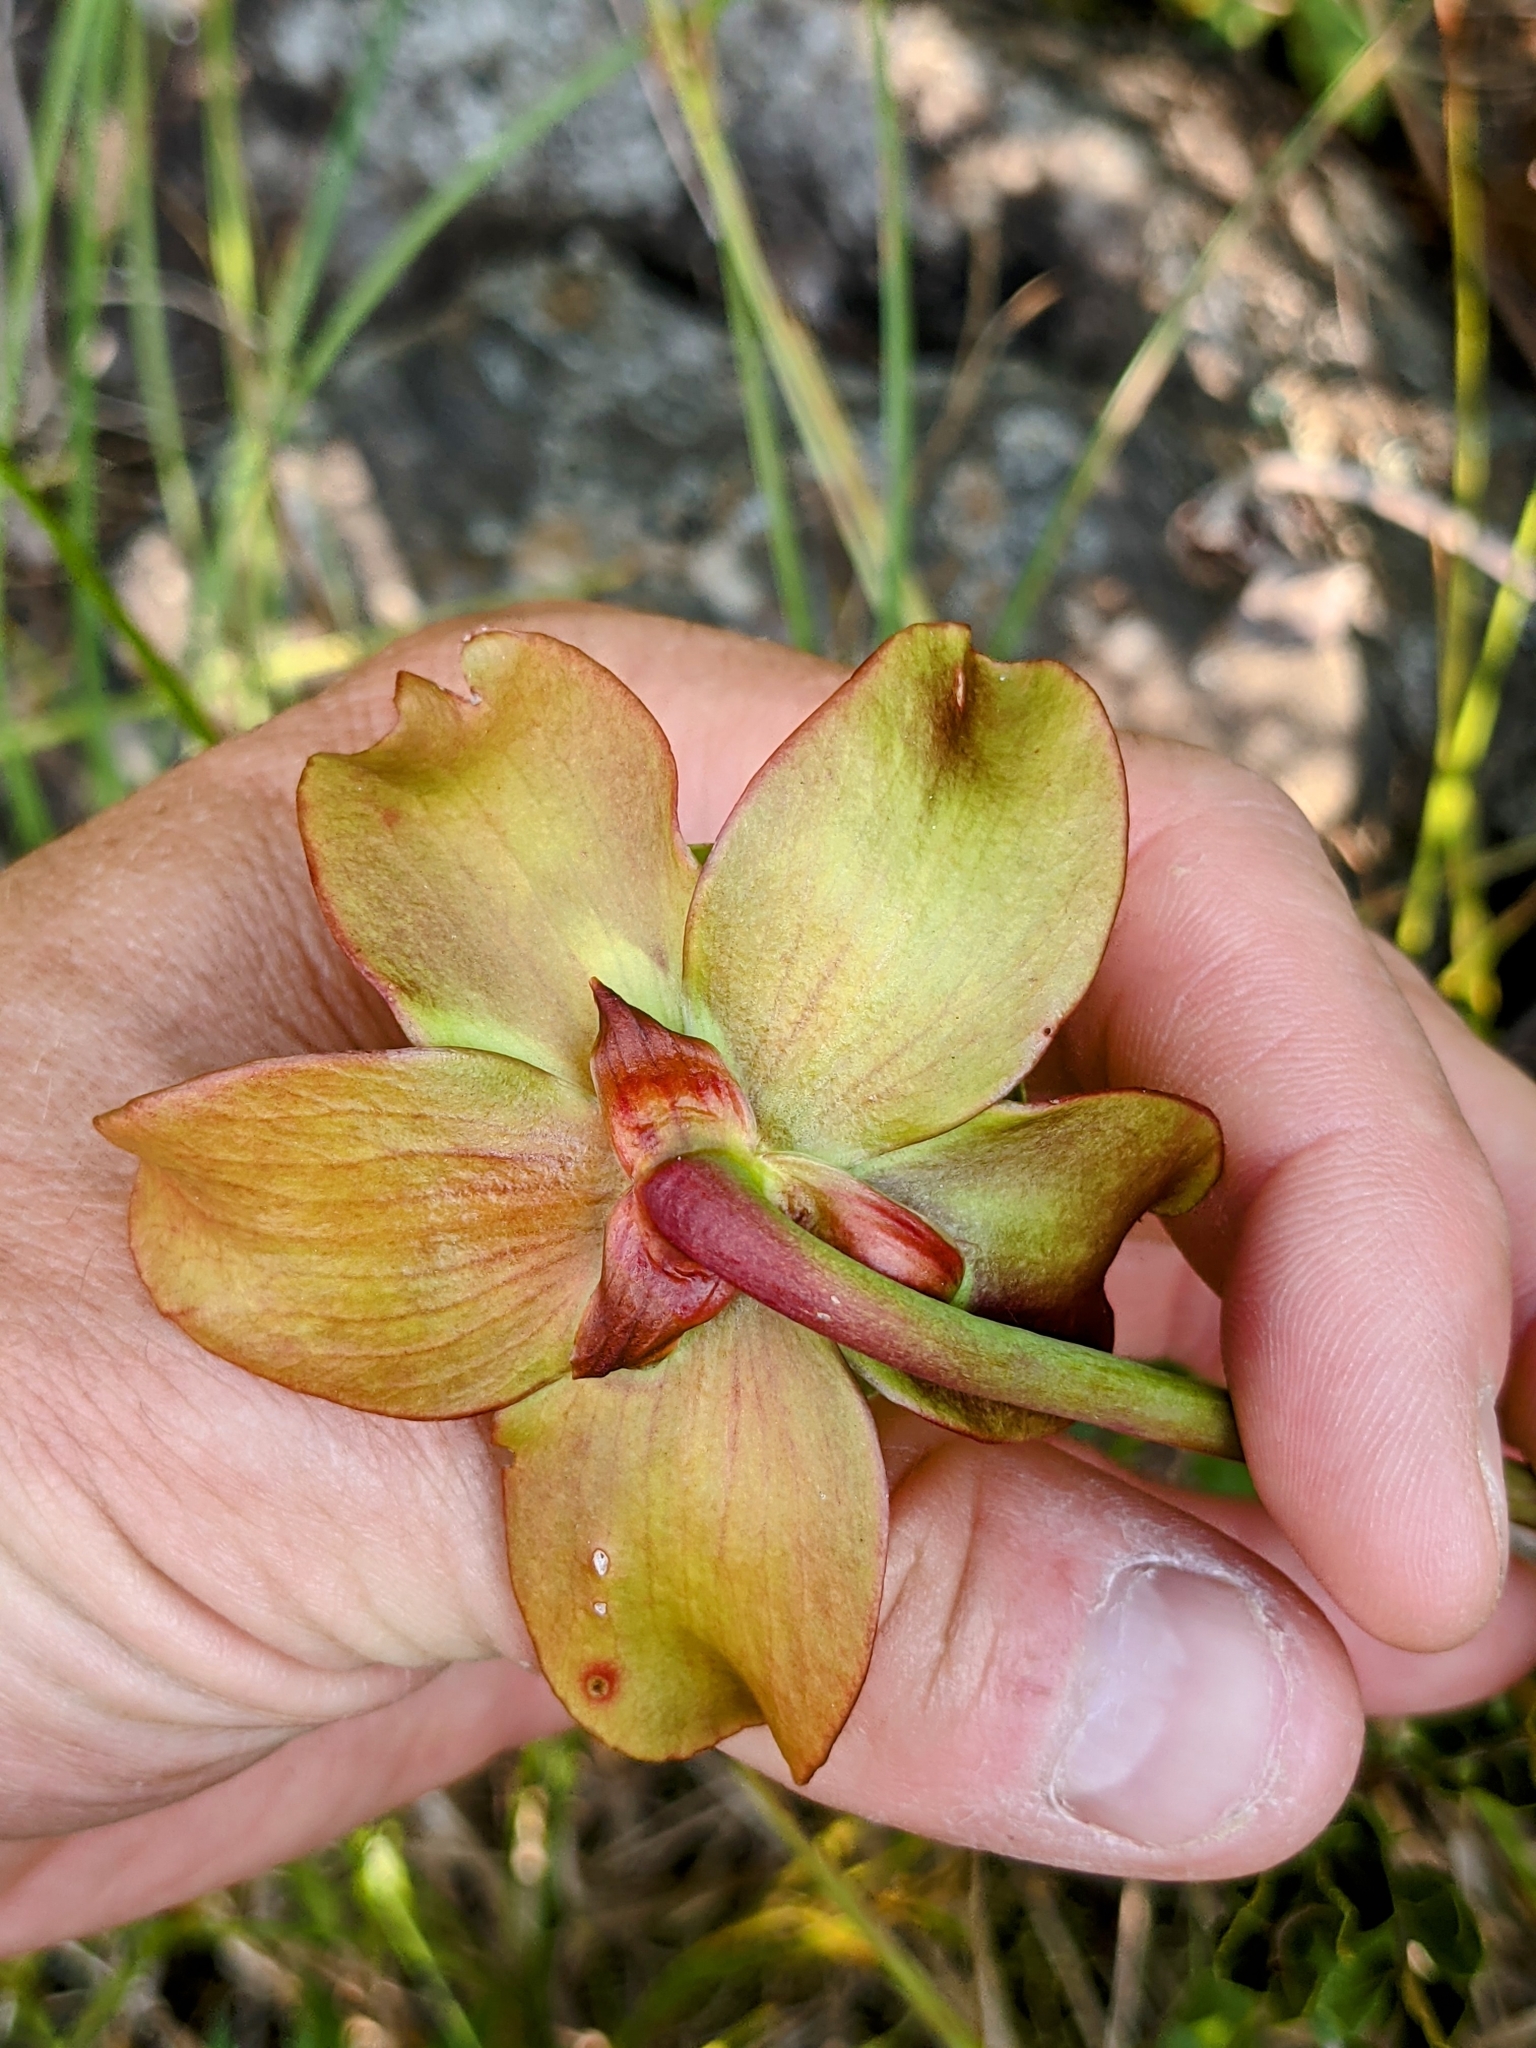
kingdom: Plantae
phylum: Tracheophyta
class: Magnoliopsida
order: Ericales
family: Sarraceniaceae
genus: Sarracenia
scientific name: Sarracenia purpurea
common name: Pitcherplant
